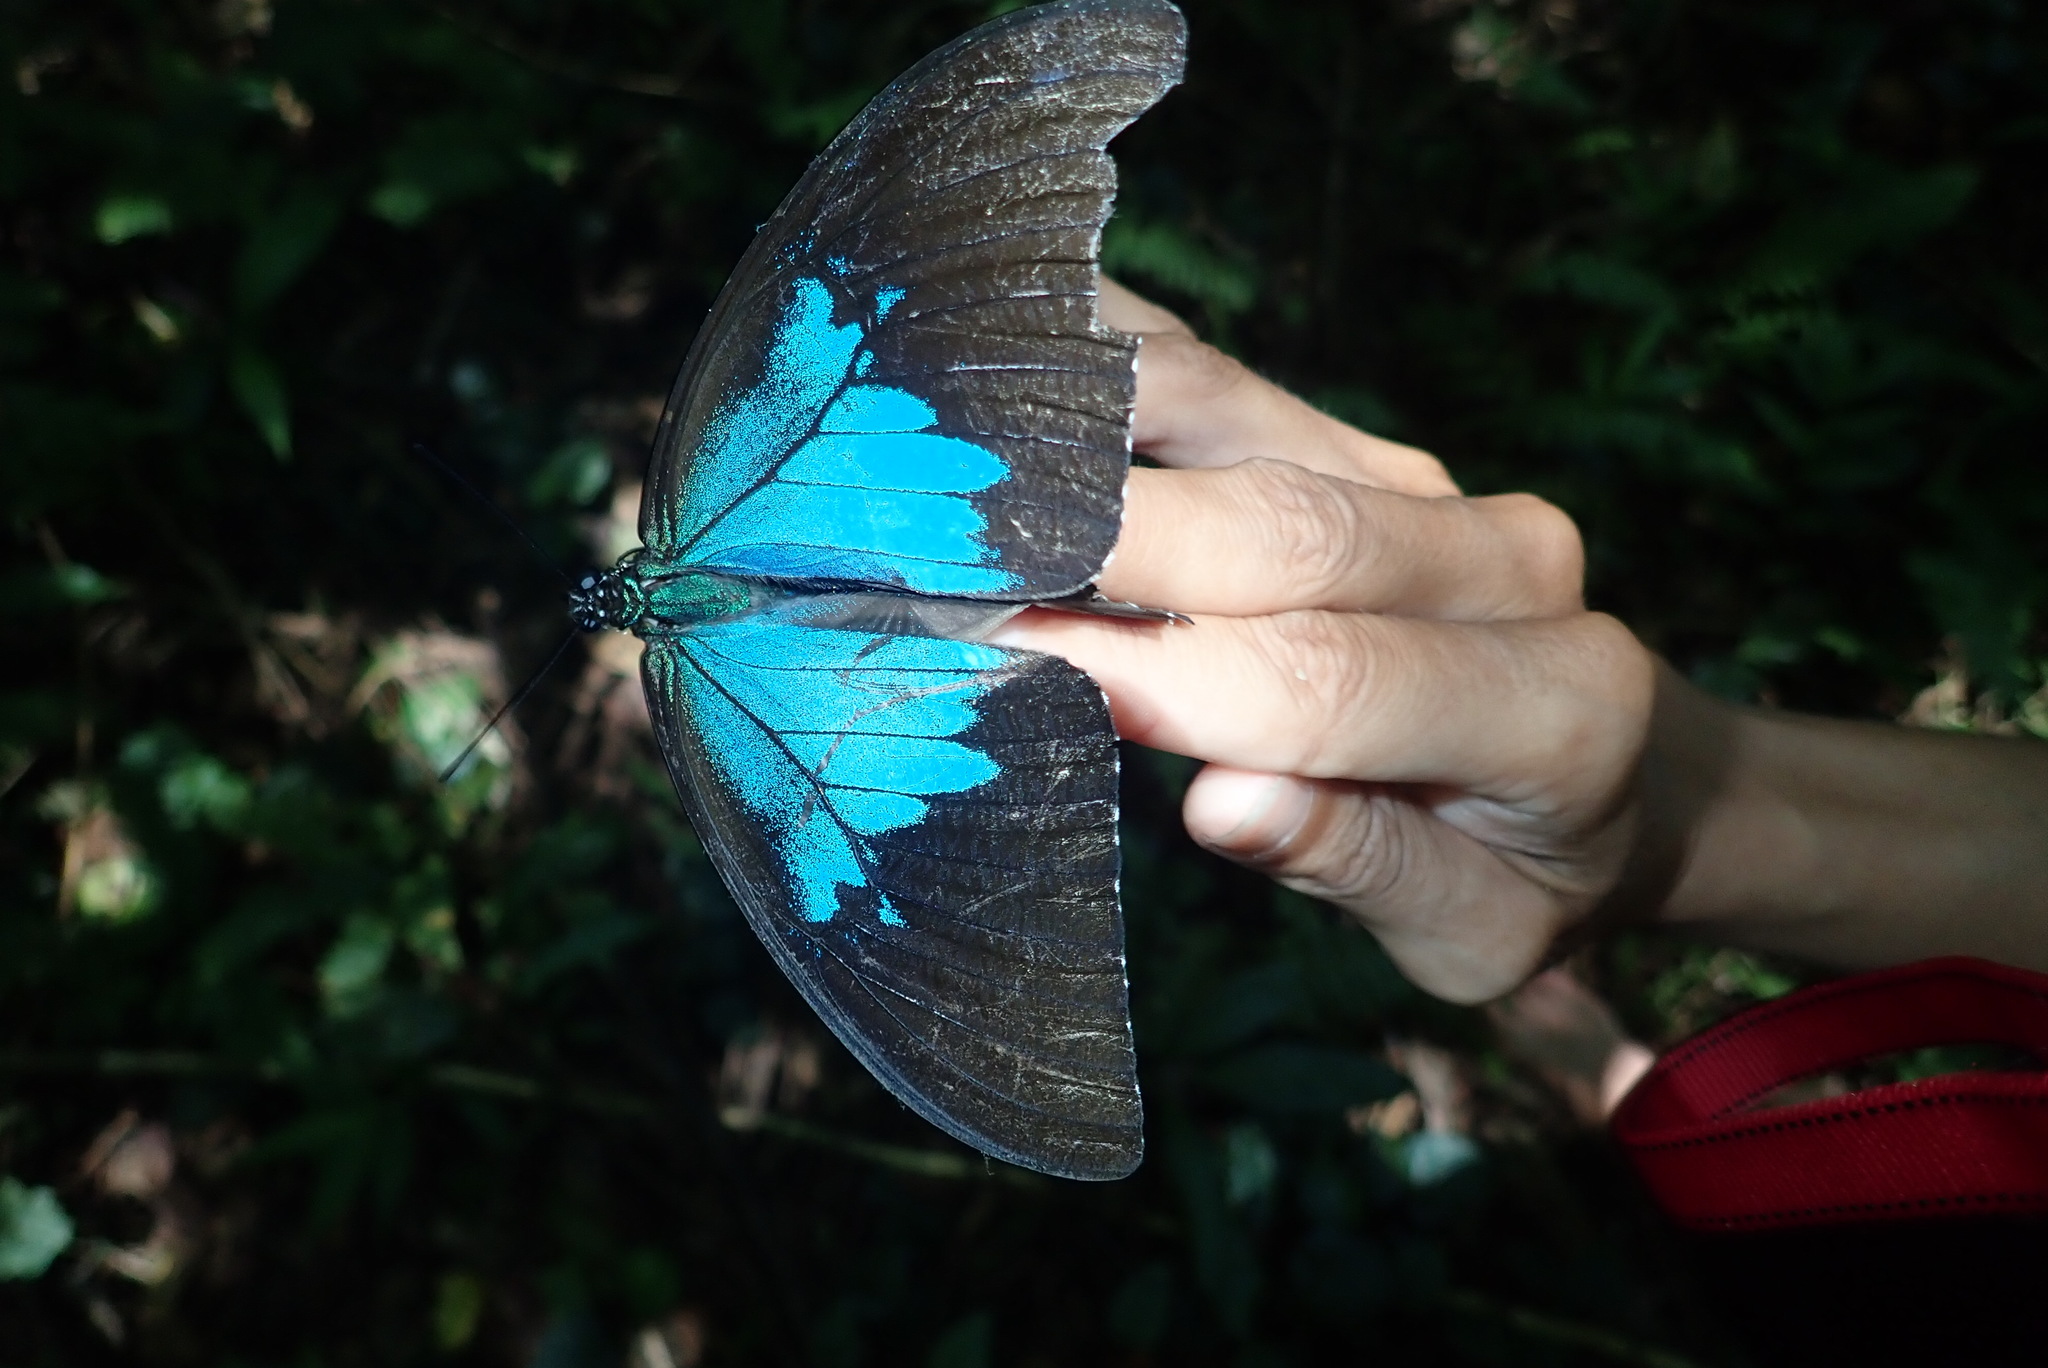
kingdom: Animalia
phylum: Arthropoda
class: Insecta
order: Lepidoptera
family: Papilionidae
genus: Papilio
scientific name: Papilio ulysses
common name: Blue emperor
